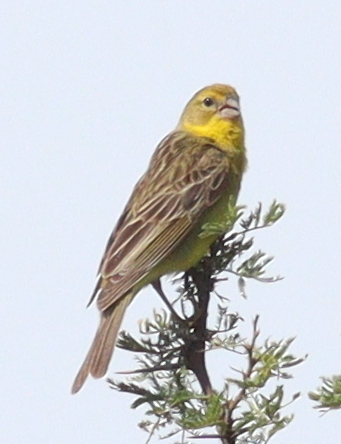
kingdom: Animalia
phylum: Chordata
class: Aves
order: Passeriformes
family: Thraupidae
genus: Sicalis
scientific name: Sicalis luteola
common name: Grassland yellow-finch
